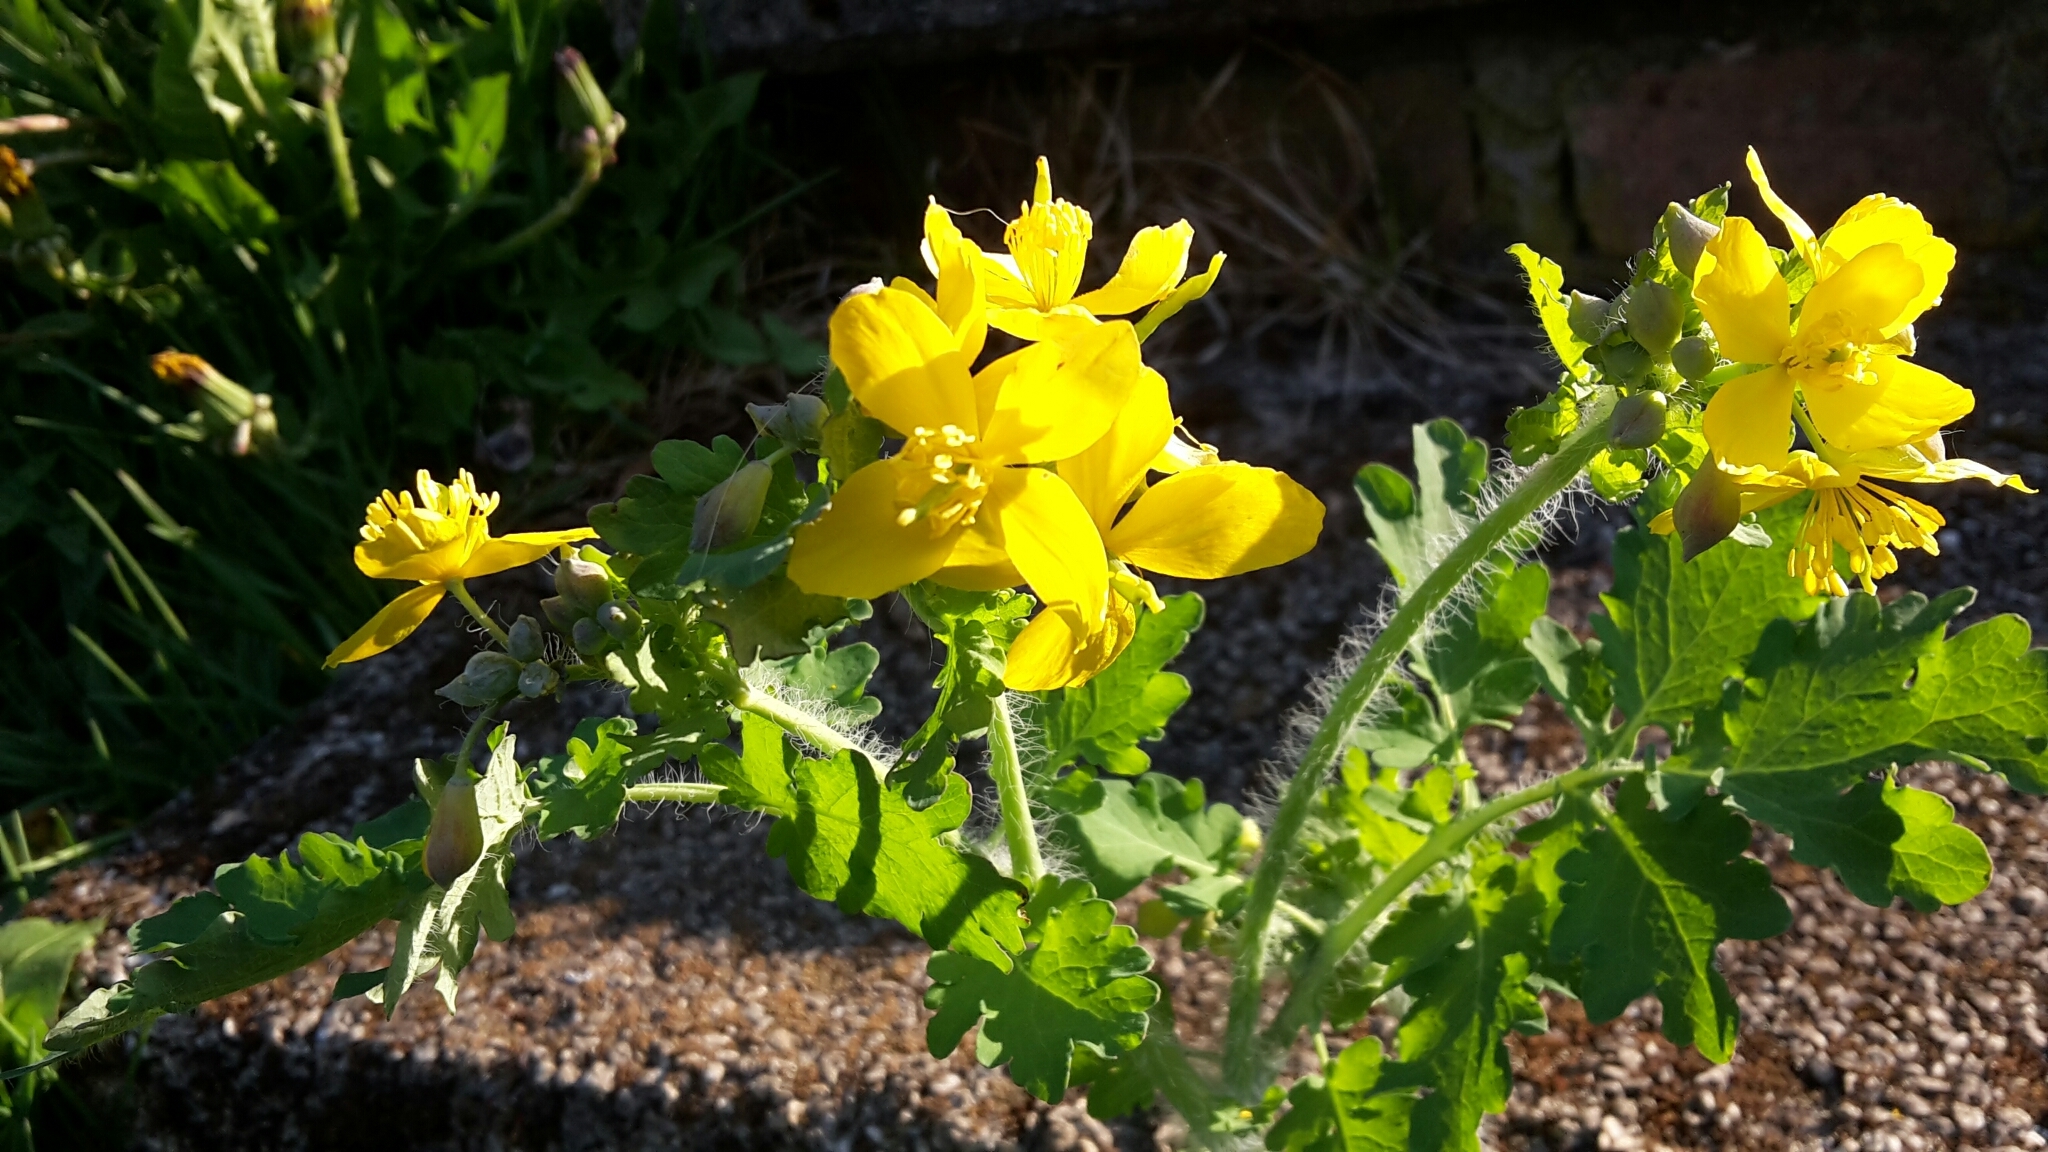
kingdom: Plantae
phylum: Tracheophyta
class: Magnoliopsida
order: Ranunculales
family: Papaveraceae
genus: Chelidonium
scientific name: Chelidonium majus
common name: Greater celandine
